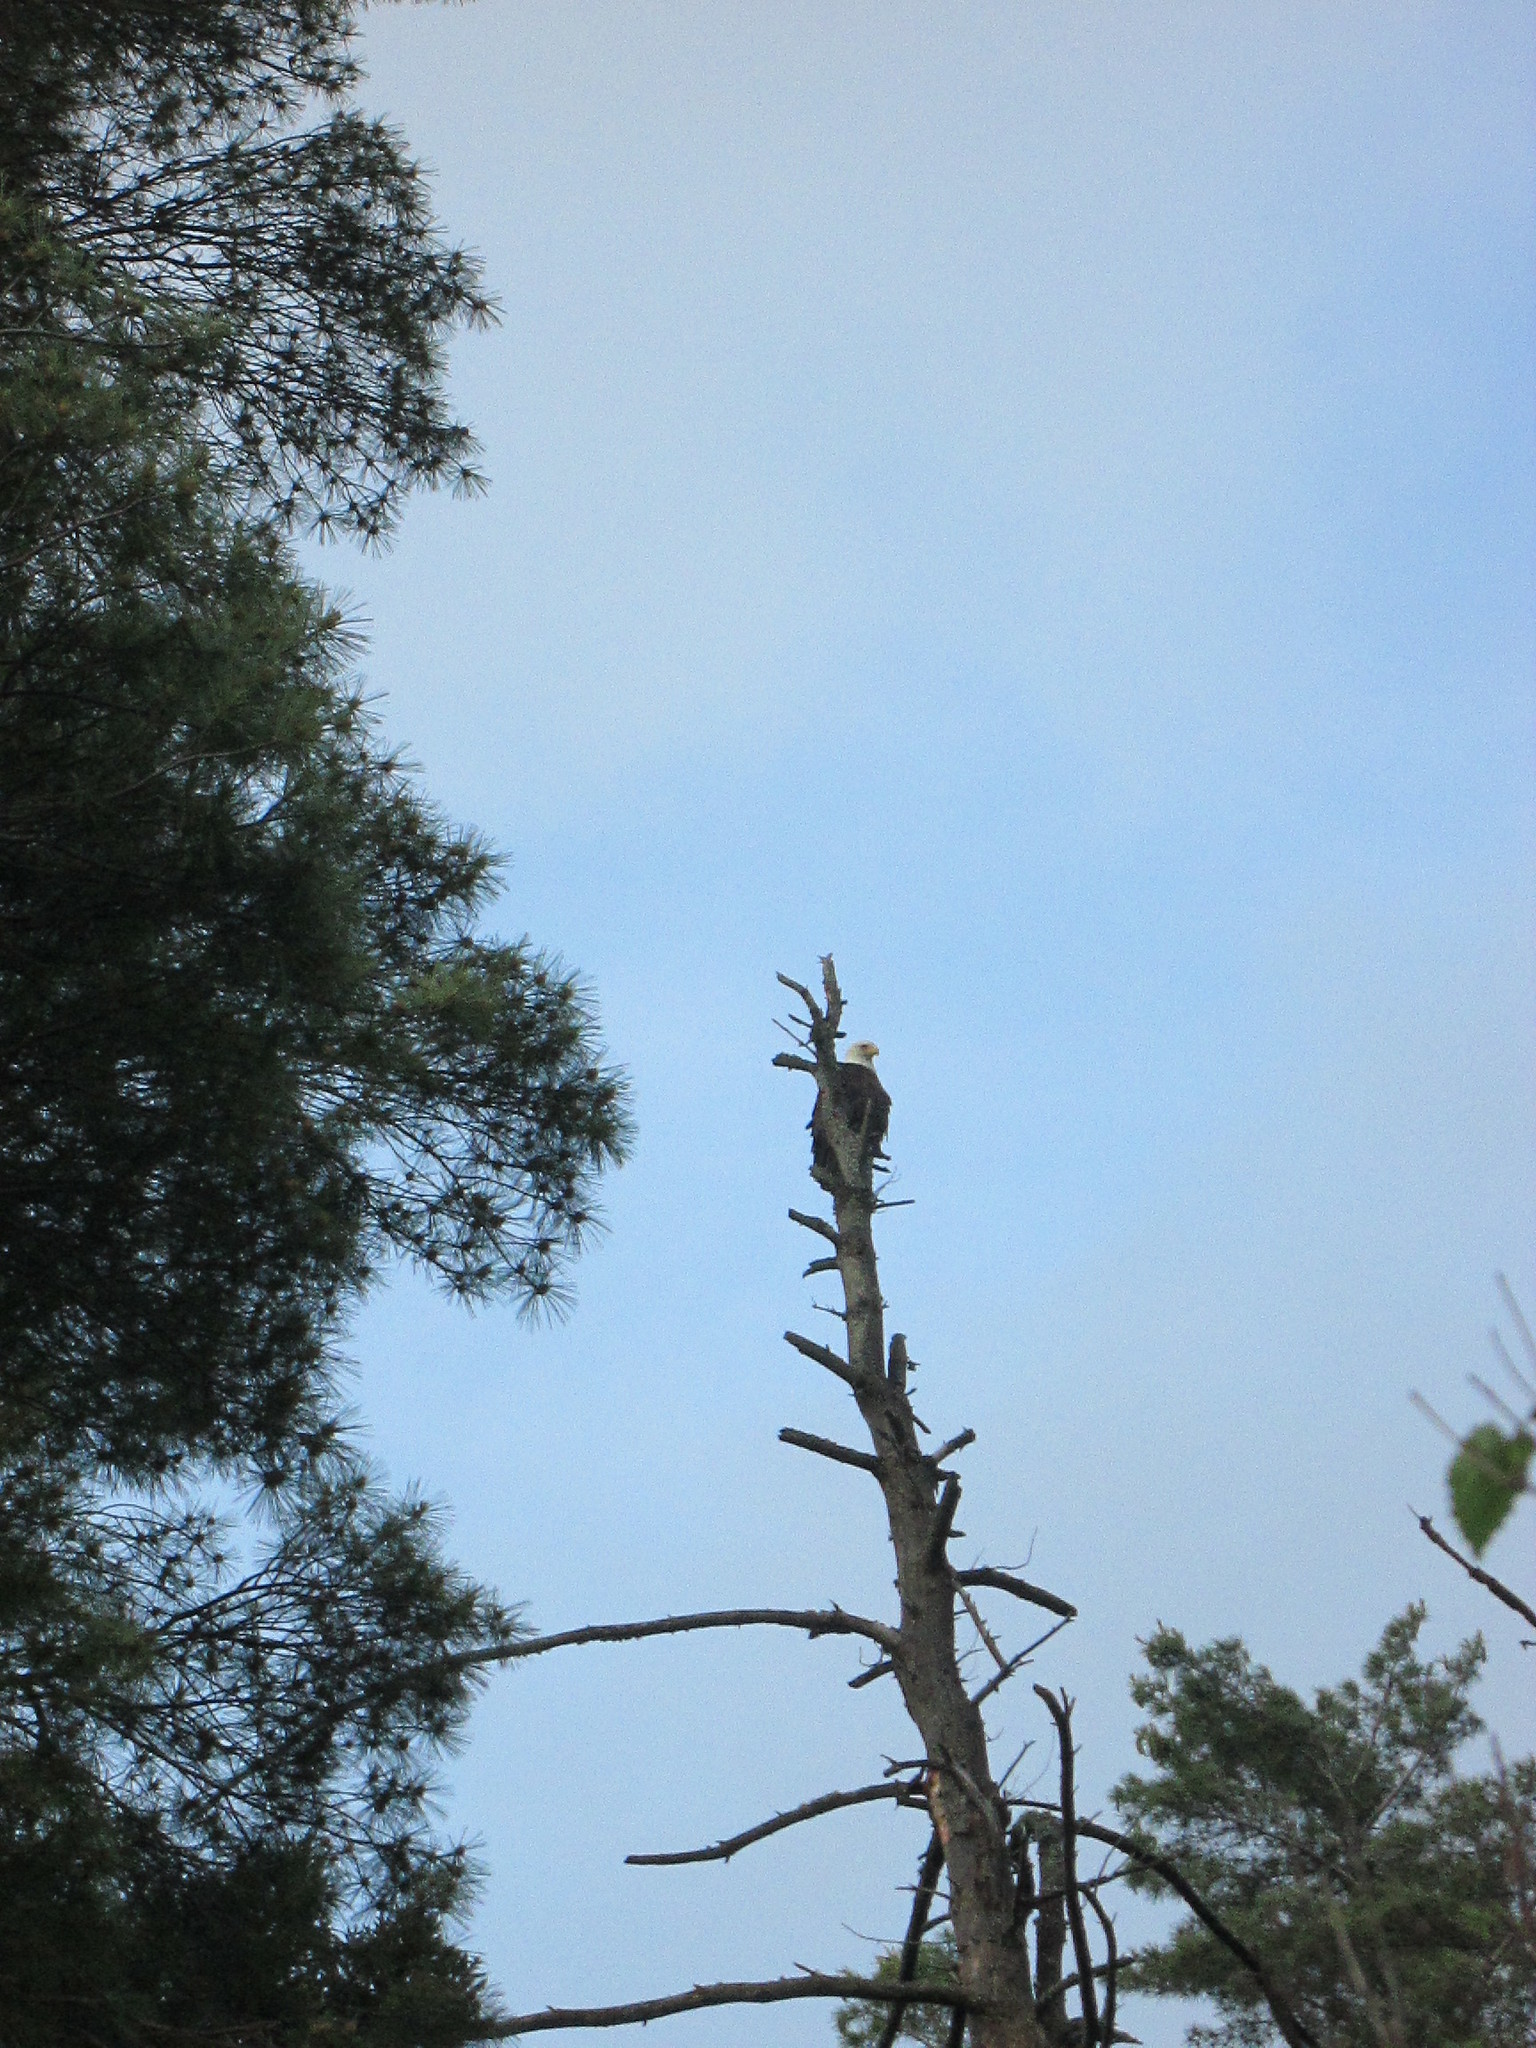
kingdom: Animalia
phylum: Chordata
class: Aves
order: Accipitriformes
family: Accipitridae
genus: Haliaeetus
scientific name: Haliaeetus leucocephalus
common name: Bald eagle
